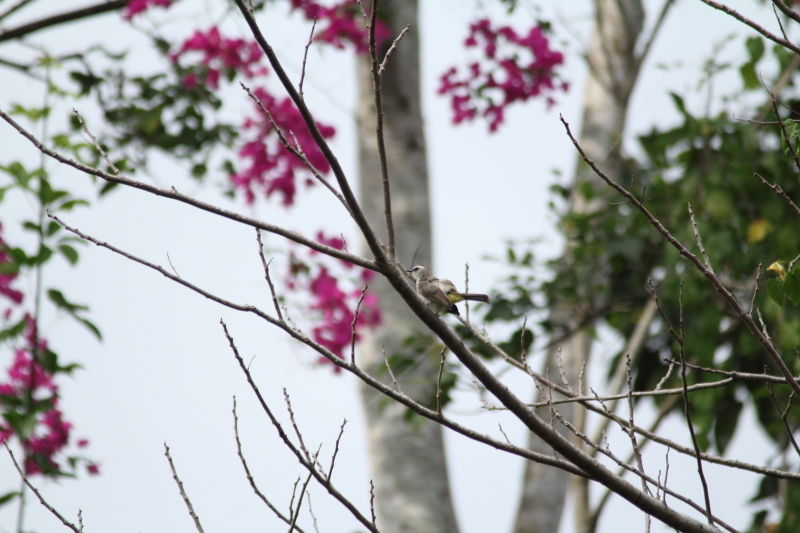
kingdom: Animalia
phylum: Chordata
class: Aves
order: Passeriformes
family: Pycnonotidae
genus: Pycnonotus
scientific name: Pycnonotus goiavier
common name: Yellow-vented bulbul
